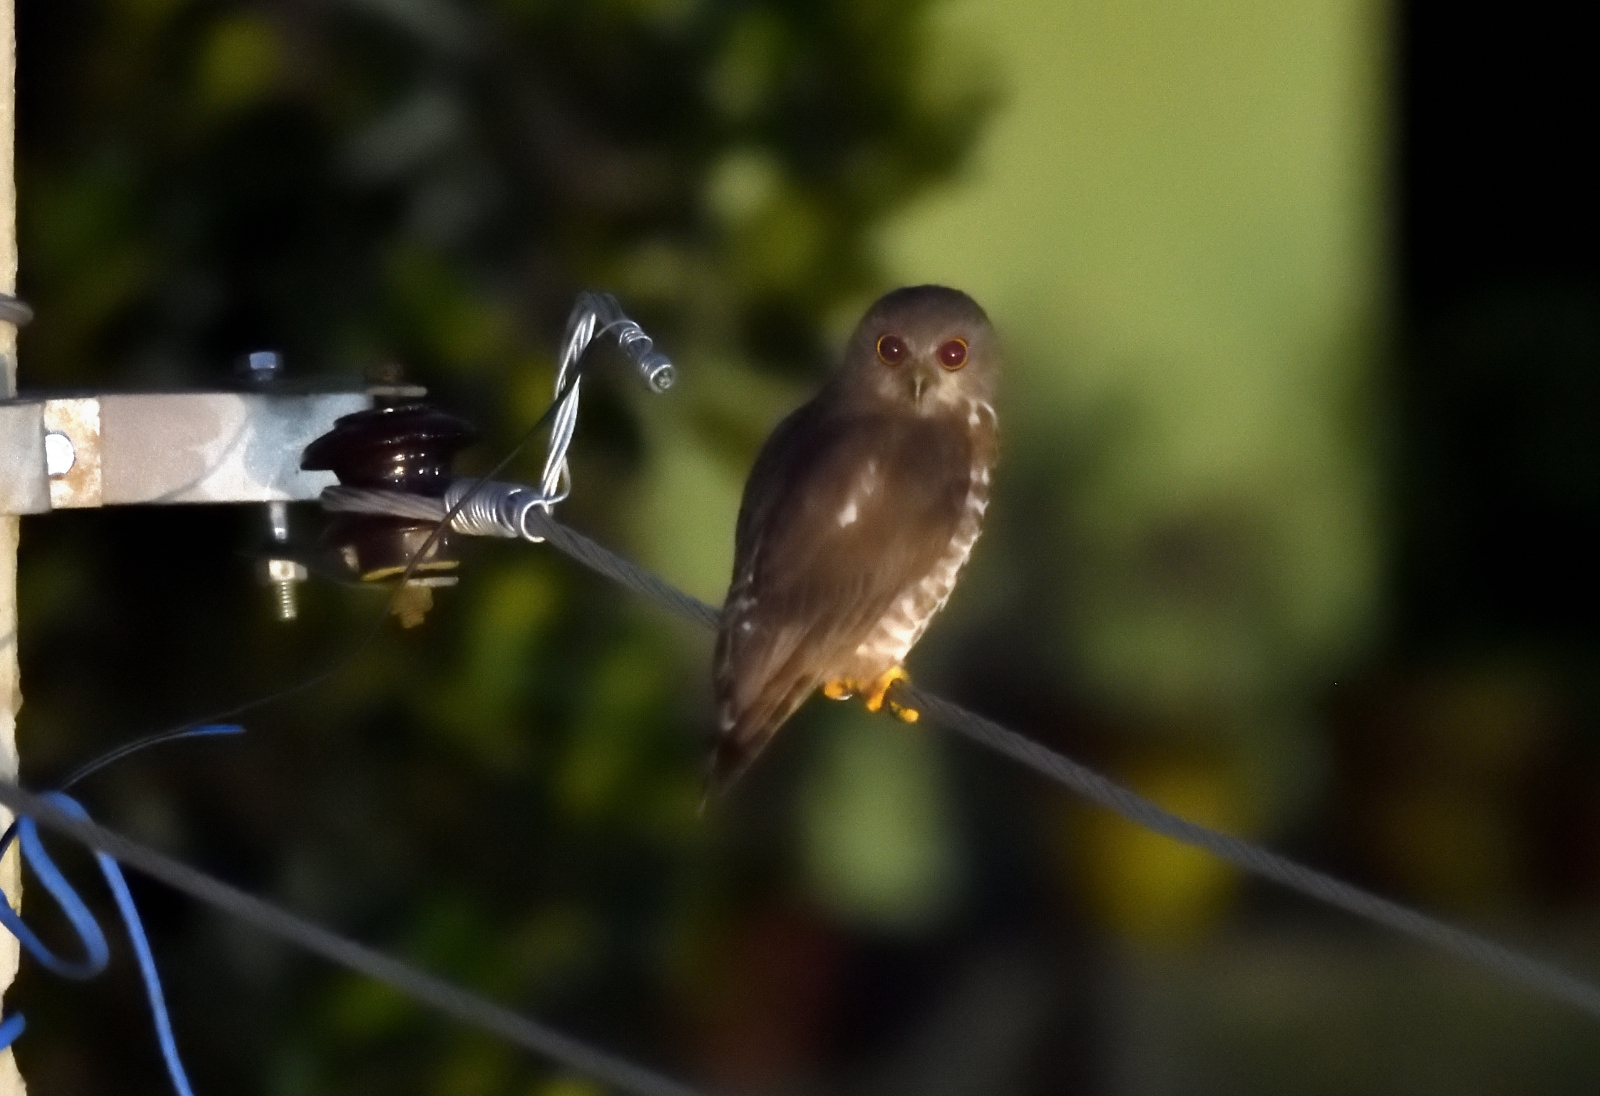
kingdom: Animalia
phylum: Chordata
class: Aves
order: Strigiformes
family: Strigidae
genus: Ninox
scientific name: Ninox scutulata
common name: Brown hawk-owl
